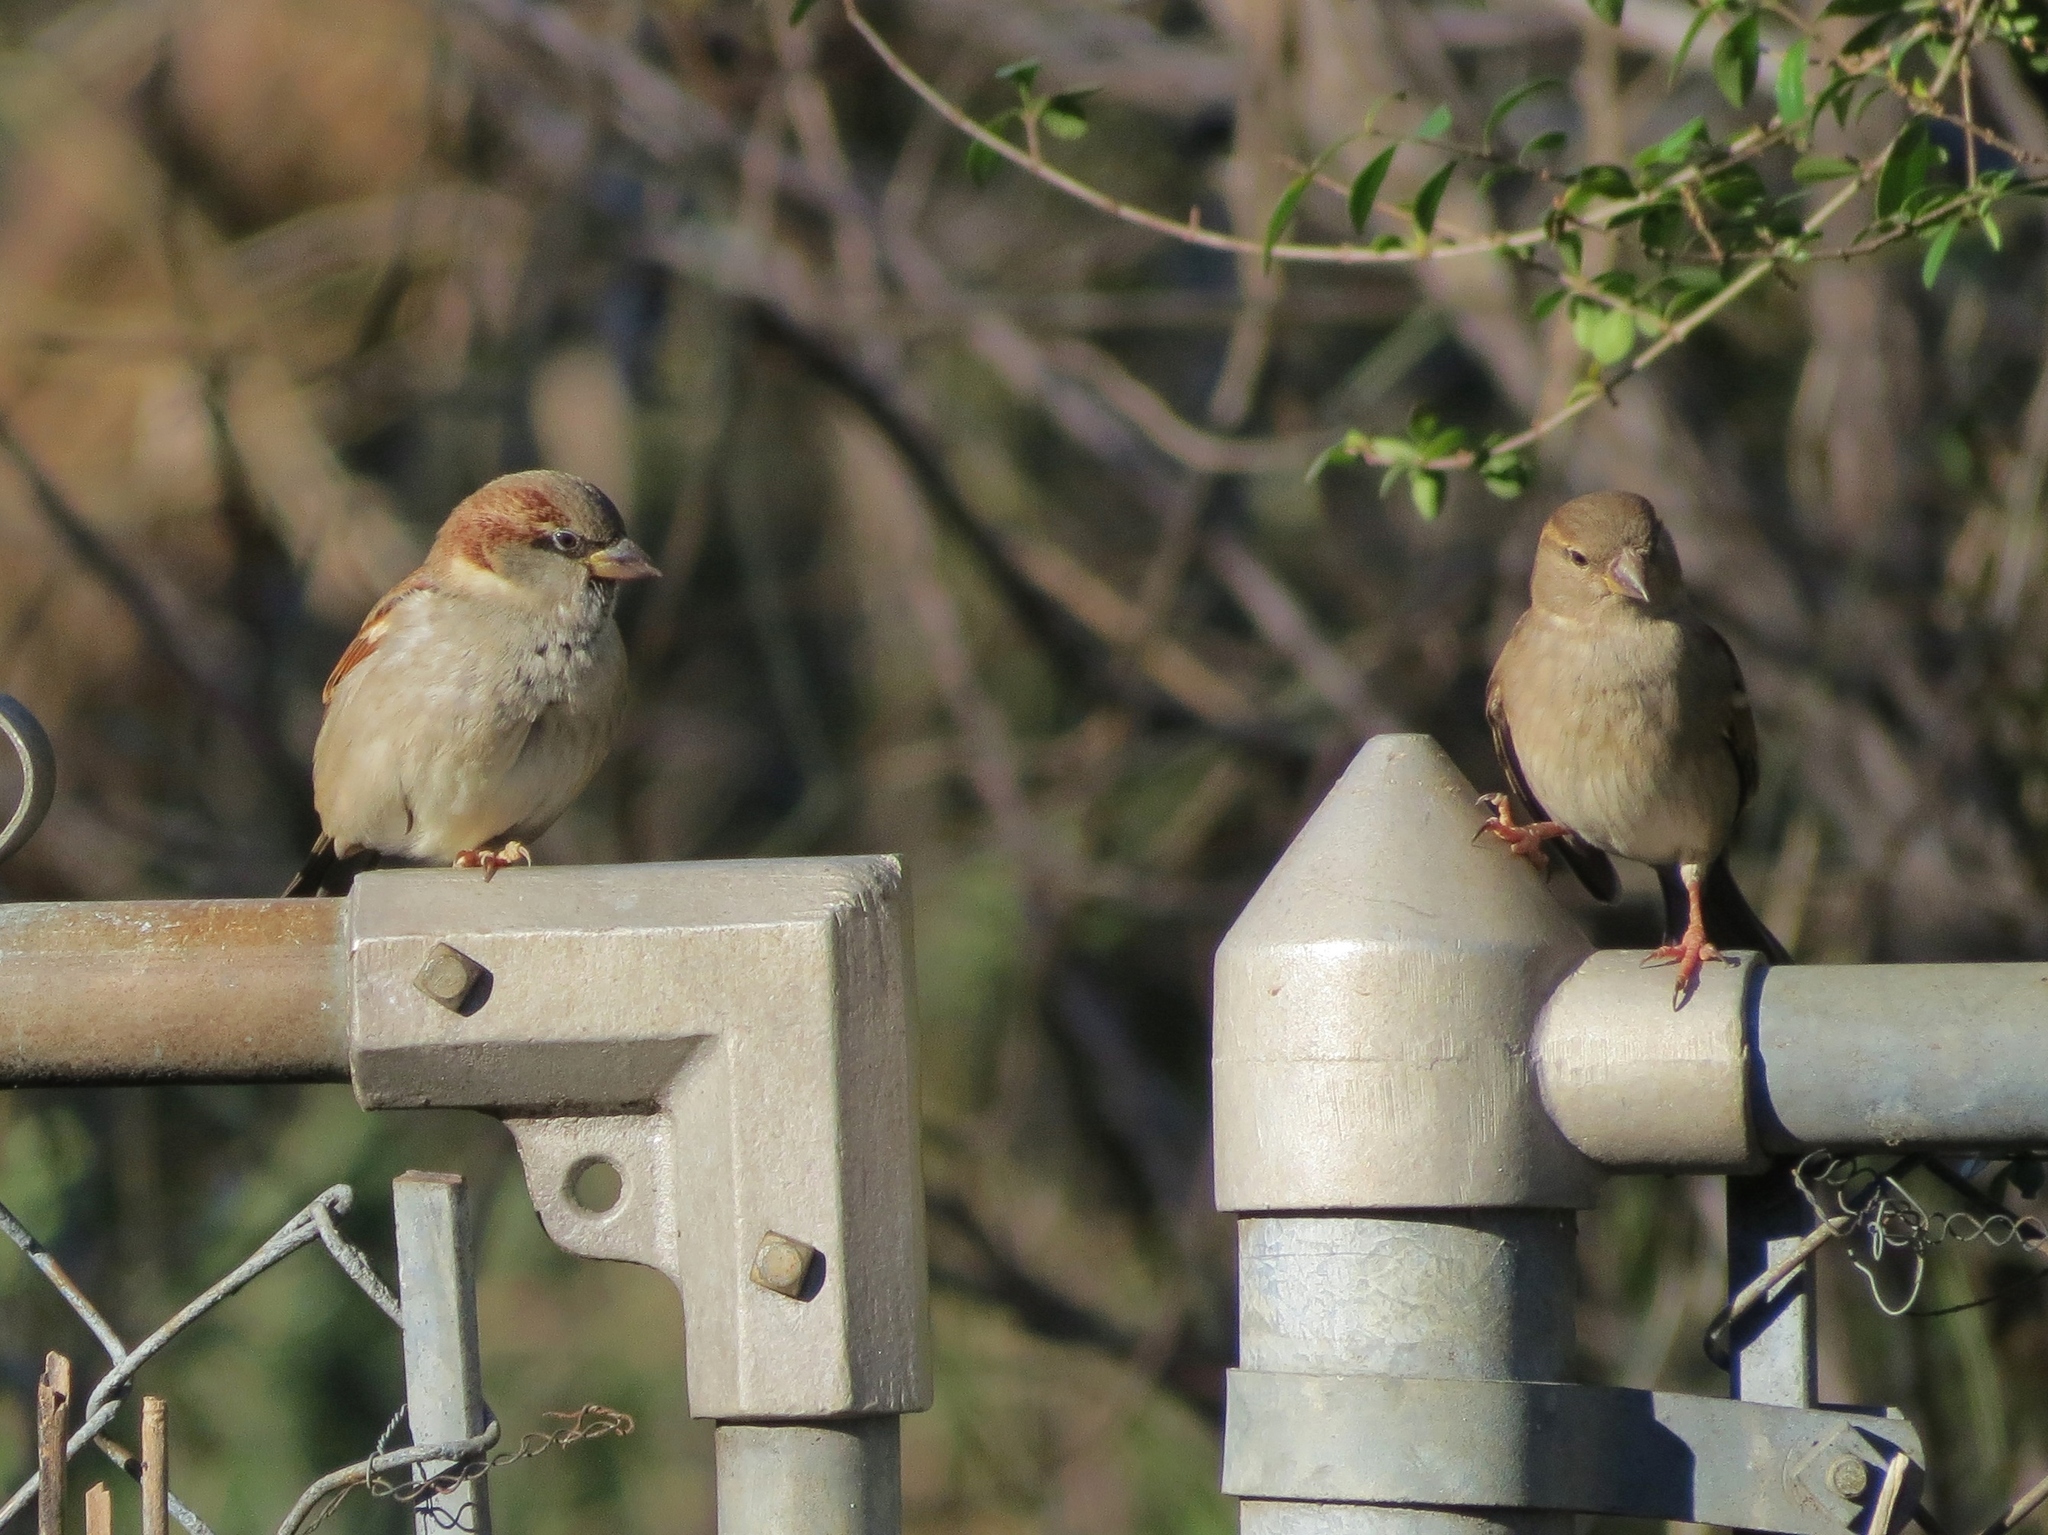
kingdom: Animalia
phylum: Chordata
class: Aves
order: Passeriformes
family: Passeridae
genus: Passer
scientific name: Passer domesticus
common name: House sparrow
